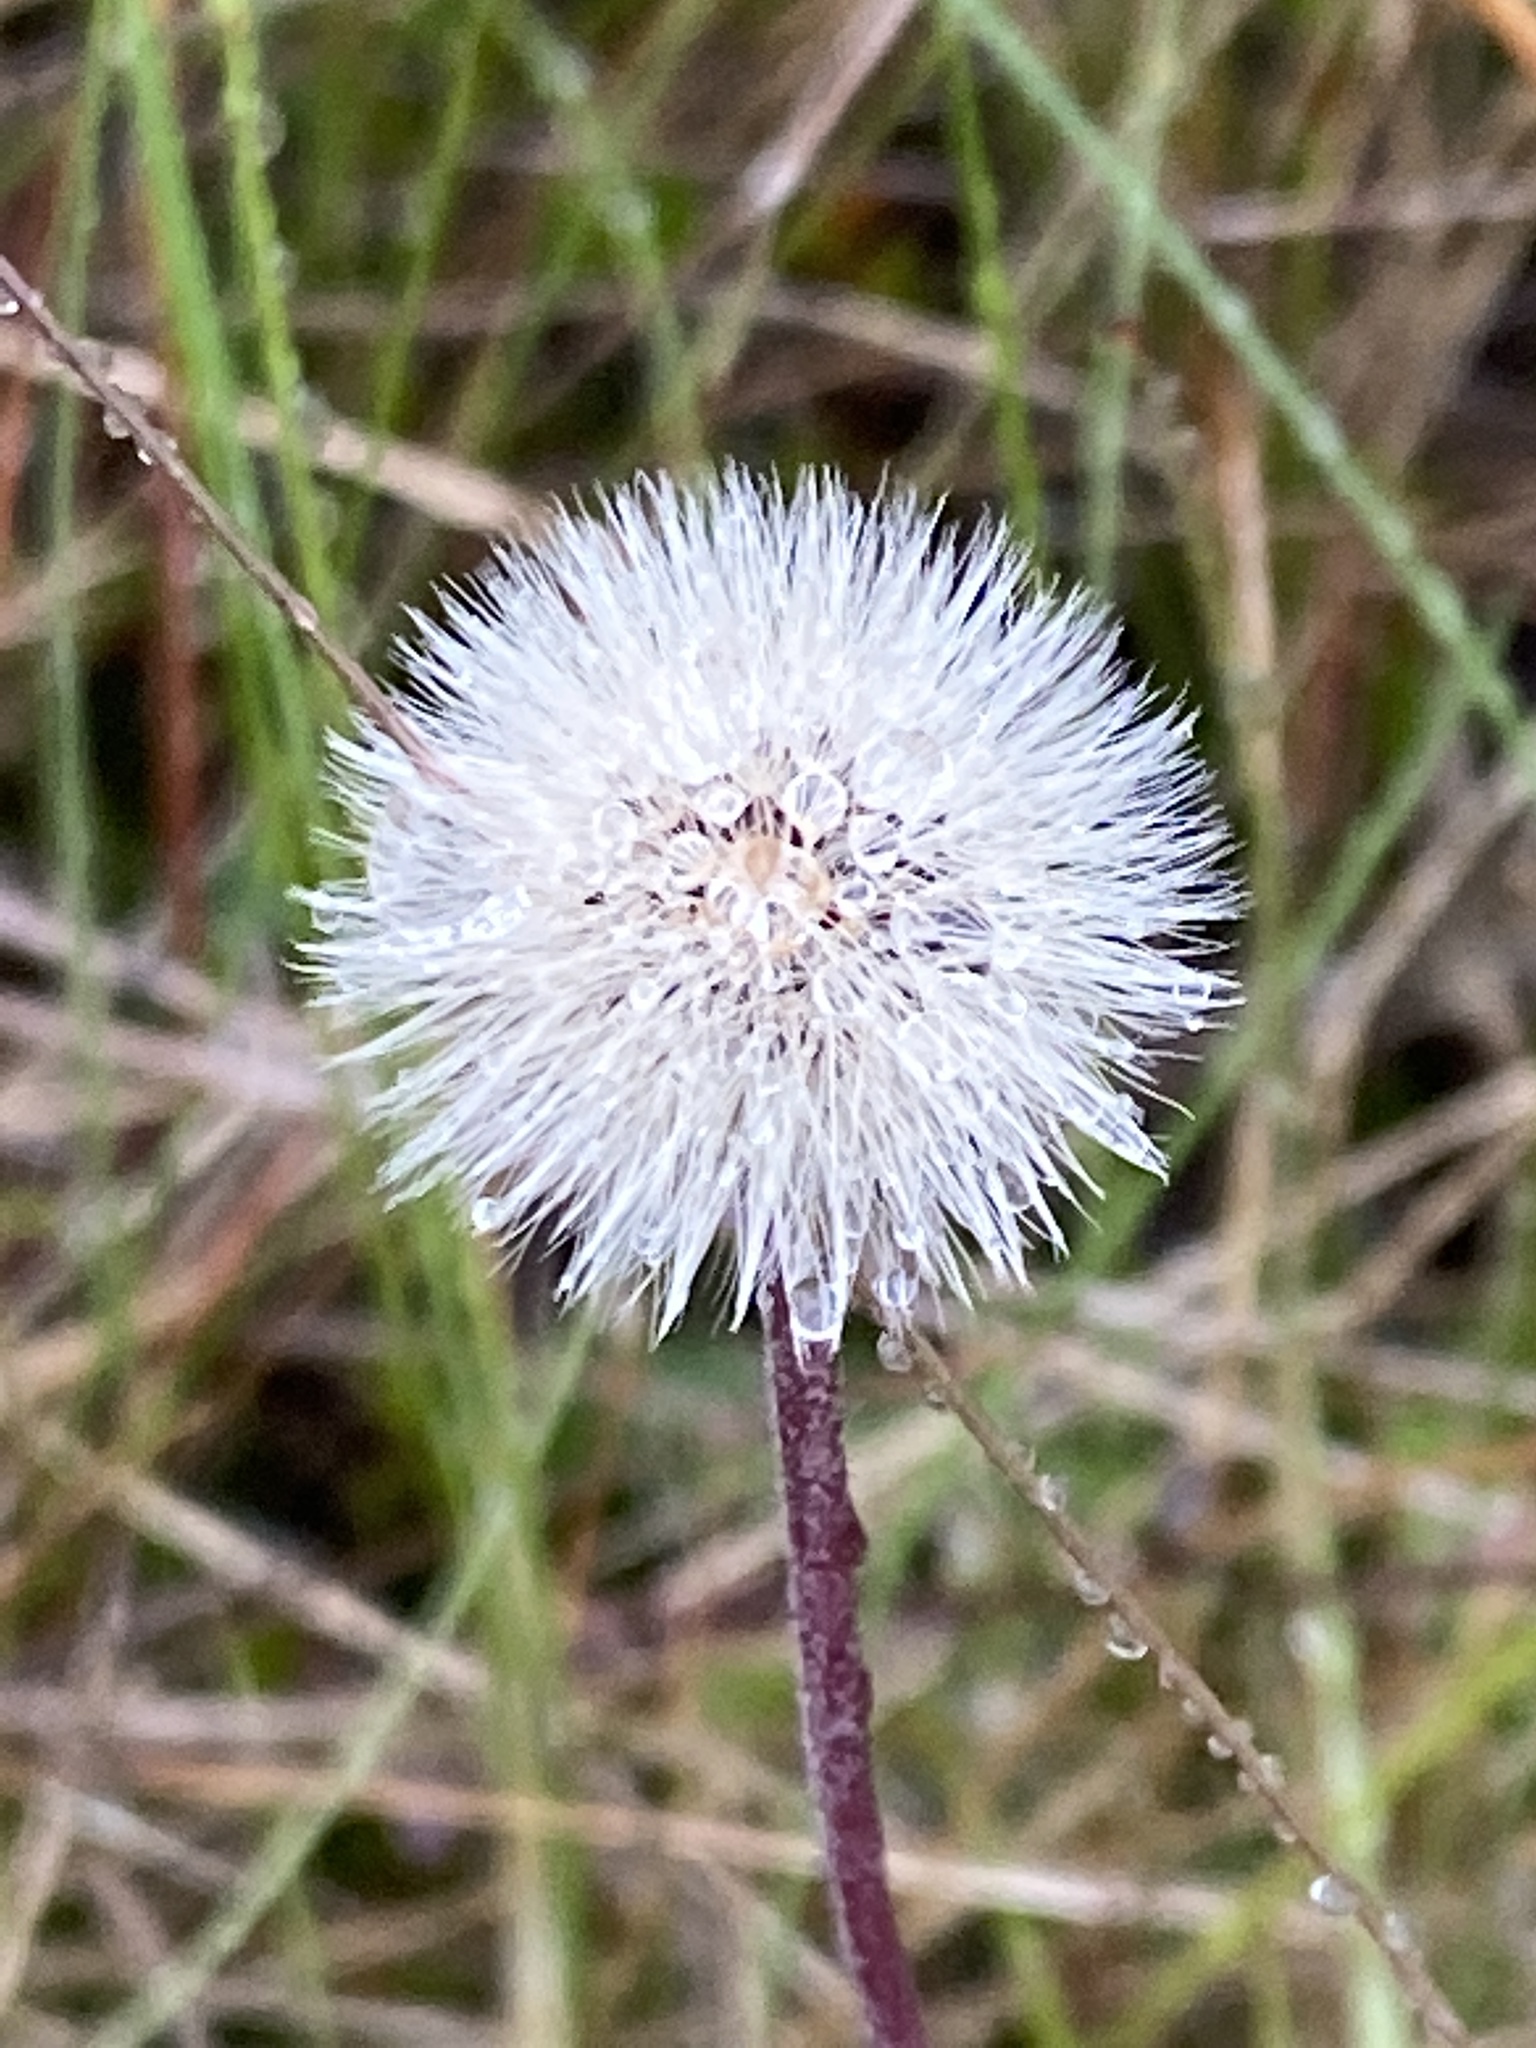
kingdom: Plantae
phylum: Tracheophyta
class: Magnoliopsida
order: Asterales
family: Asteraceae
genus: Pilosella
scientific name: Pilosella officinarum
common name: Mouse-ear hawkweed
